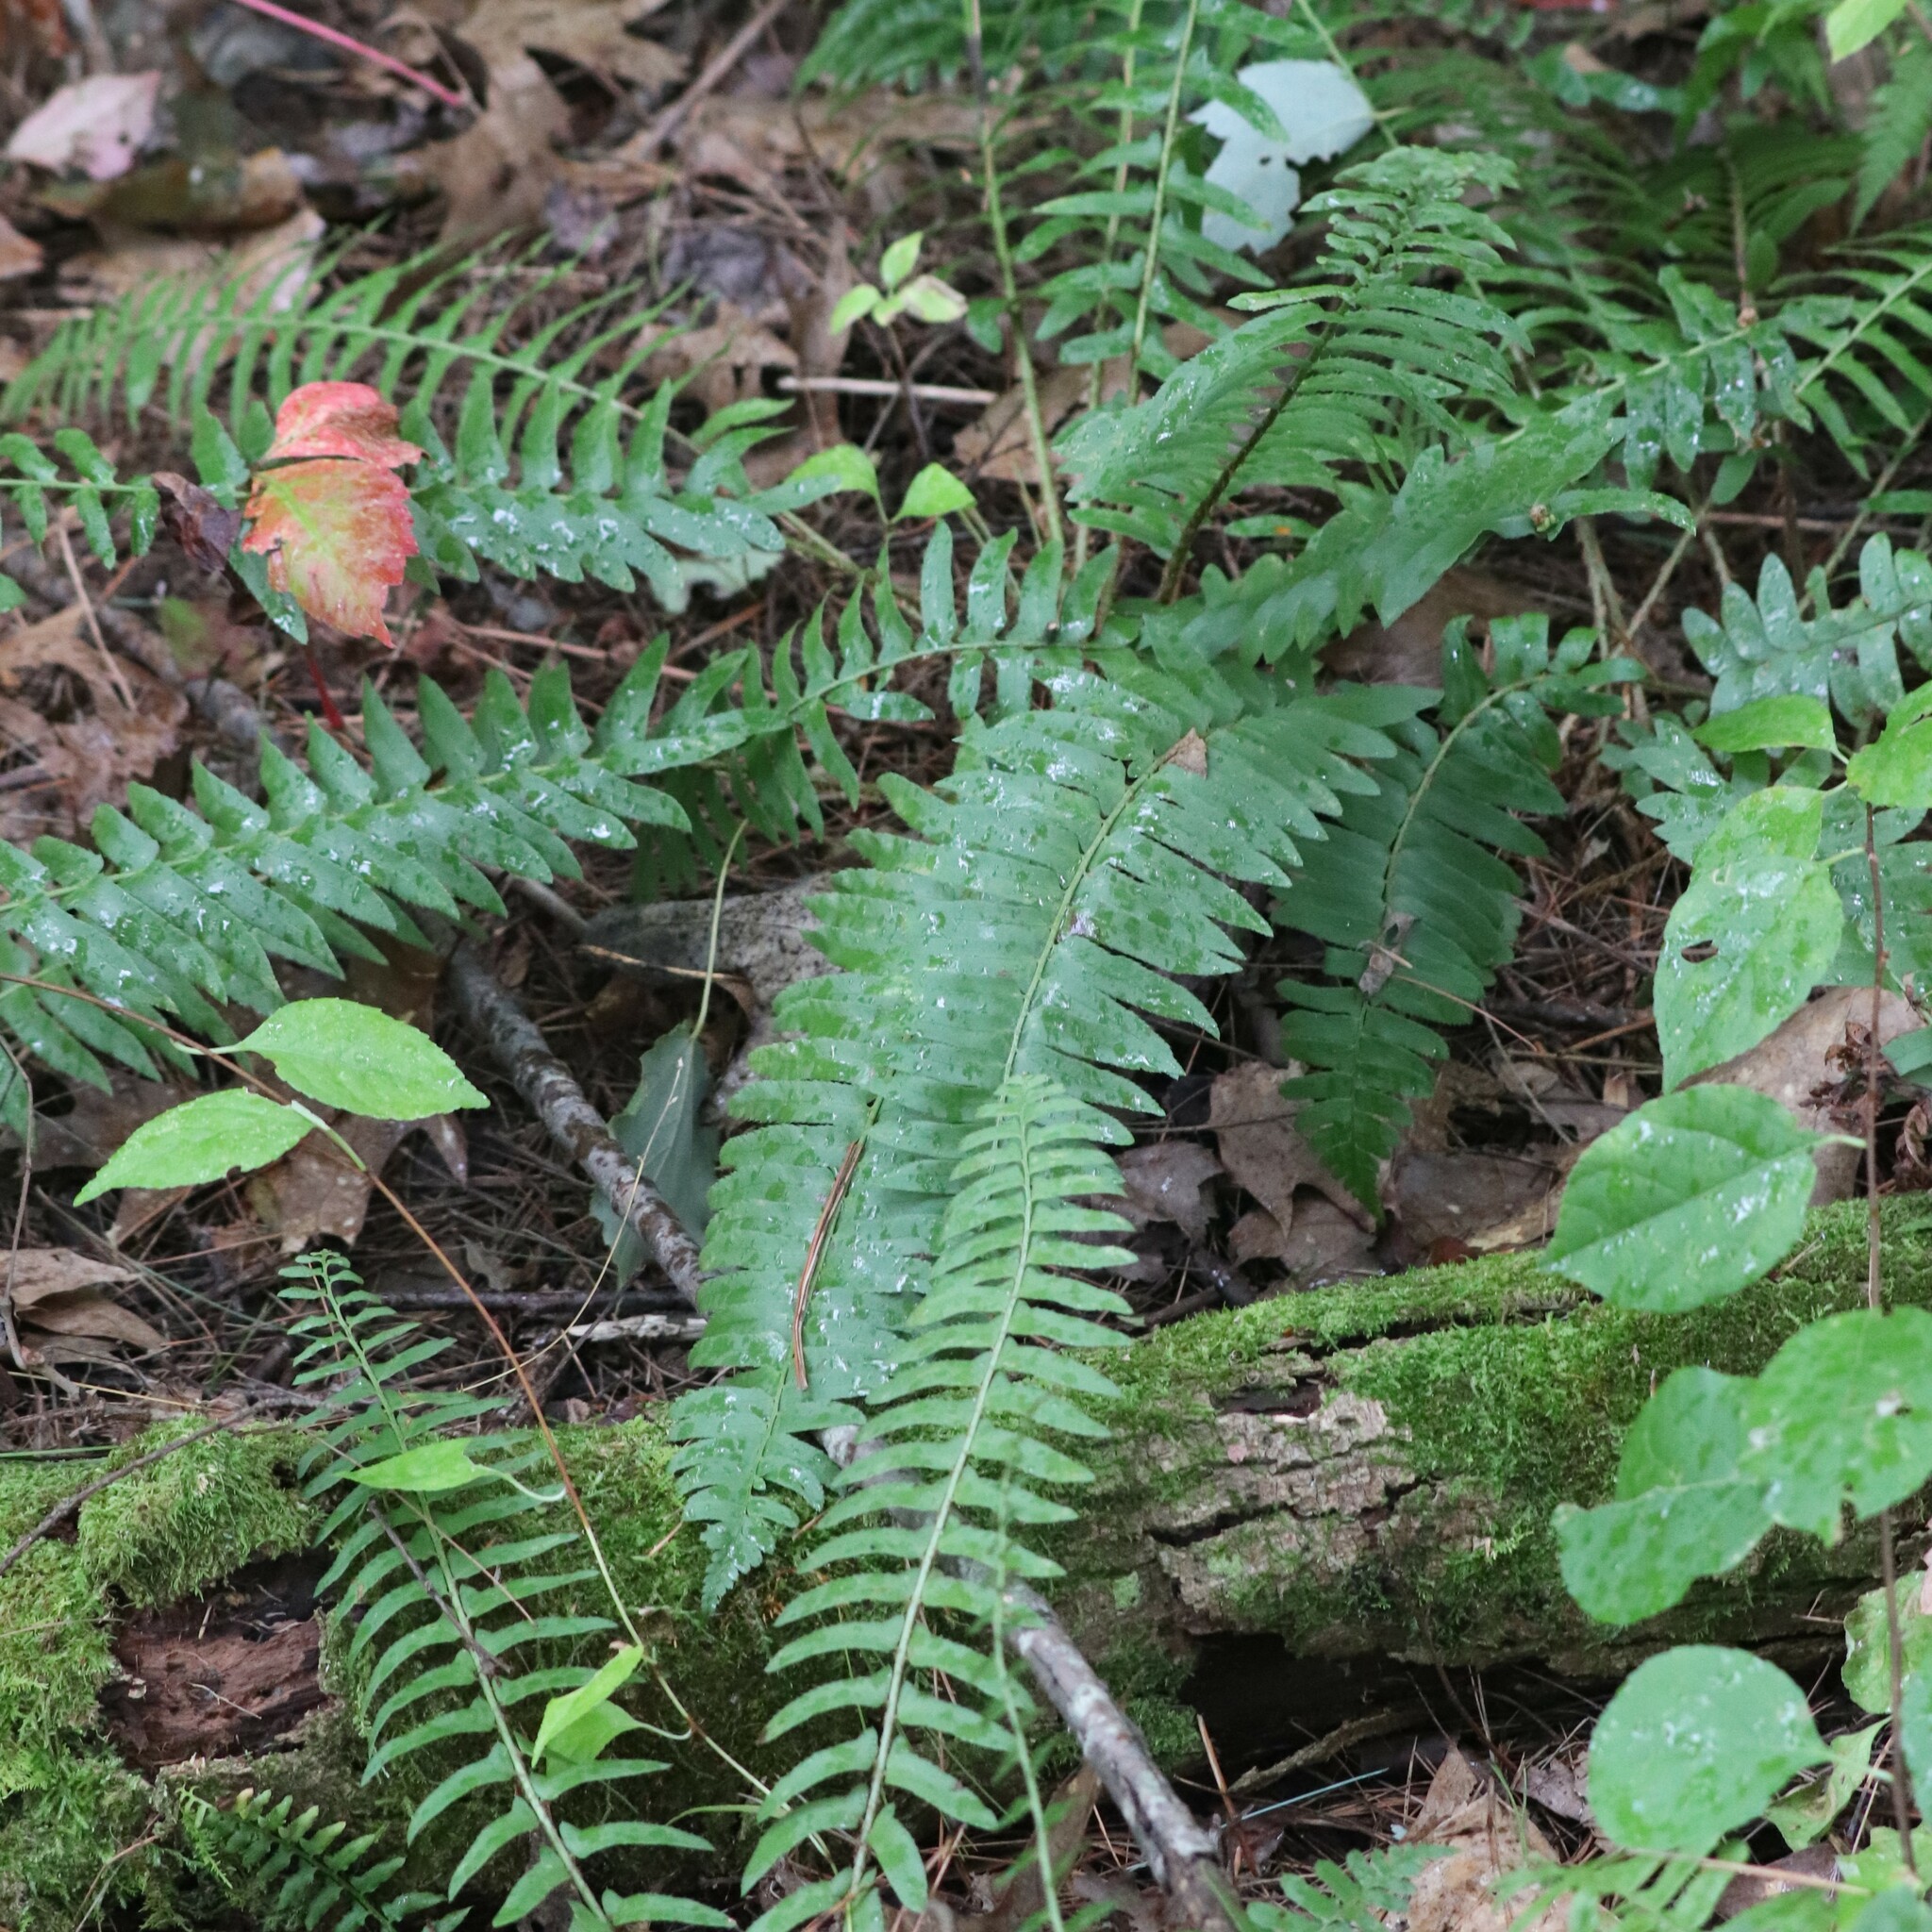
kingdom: Plantae
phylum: Tracheophyta
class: Polypodiopsida
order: Polypodiales
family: Dryopteridaceae
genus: Polystichum
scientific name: Polystichum acrostichoides
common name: Christmas fern
